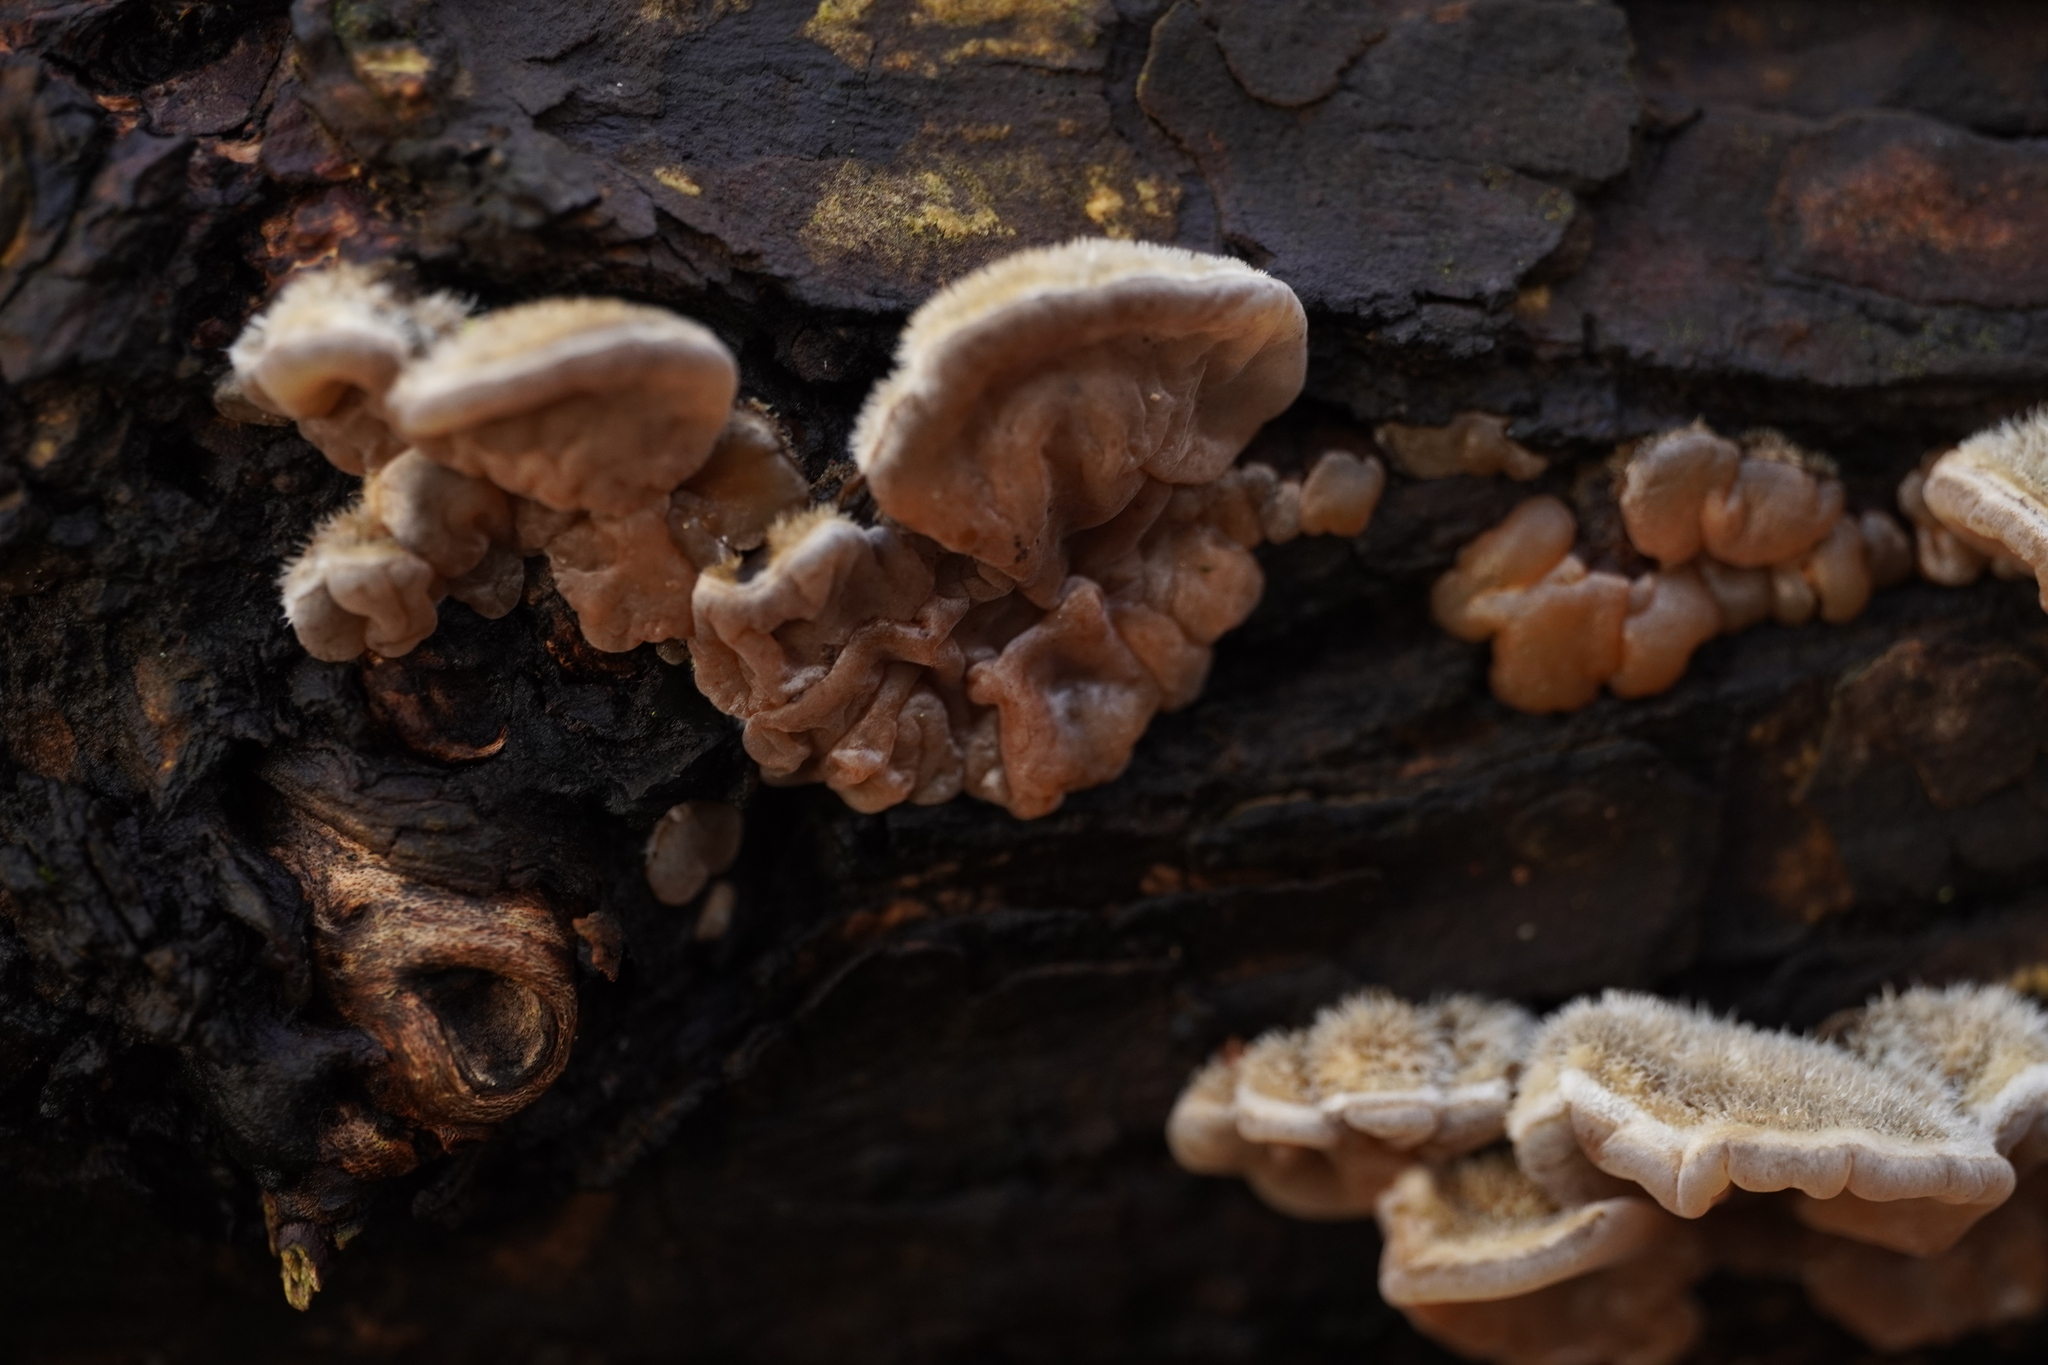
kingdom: Fungi
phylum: Basidiomycota
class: Agaricomycetes
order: Auriculariales
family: Auriculariaceae
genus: Auricularia
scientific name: Auricularia mesenterica
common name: Tripe fungus
